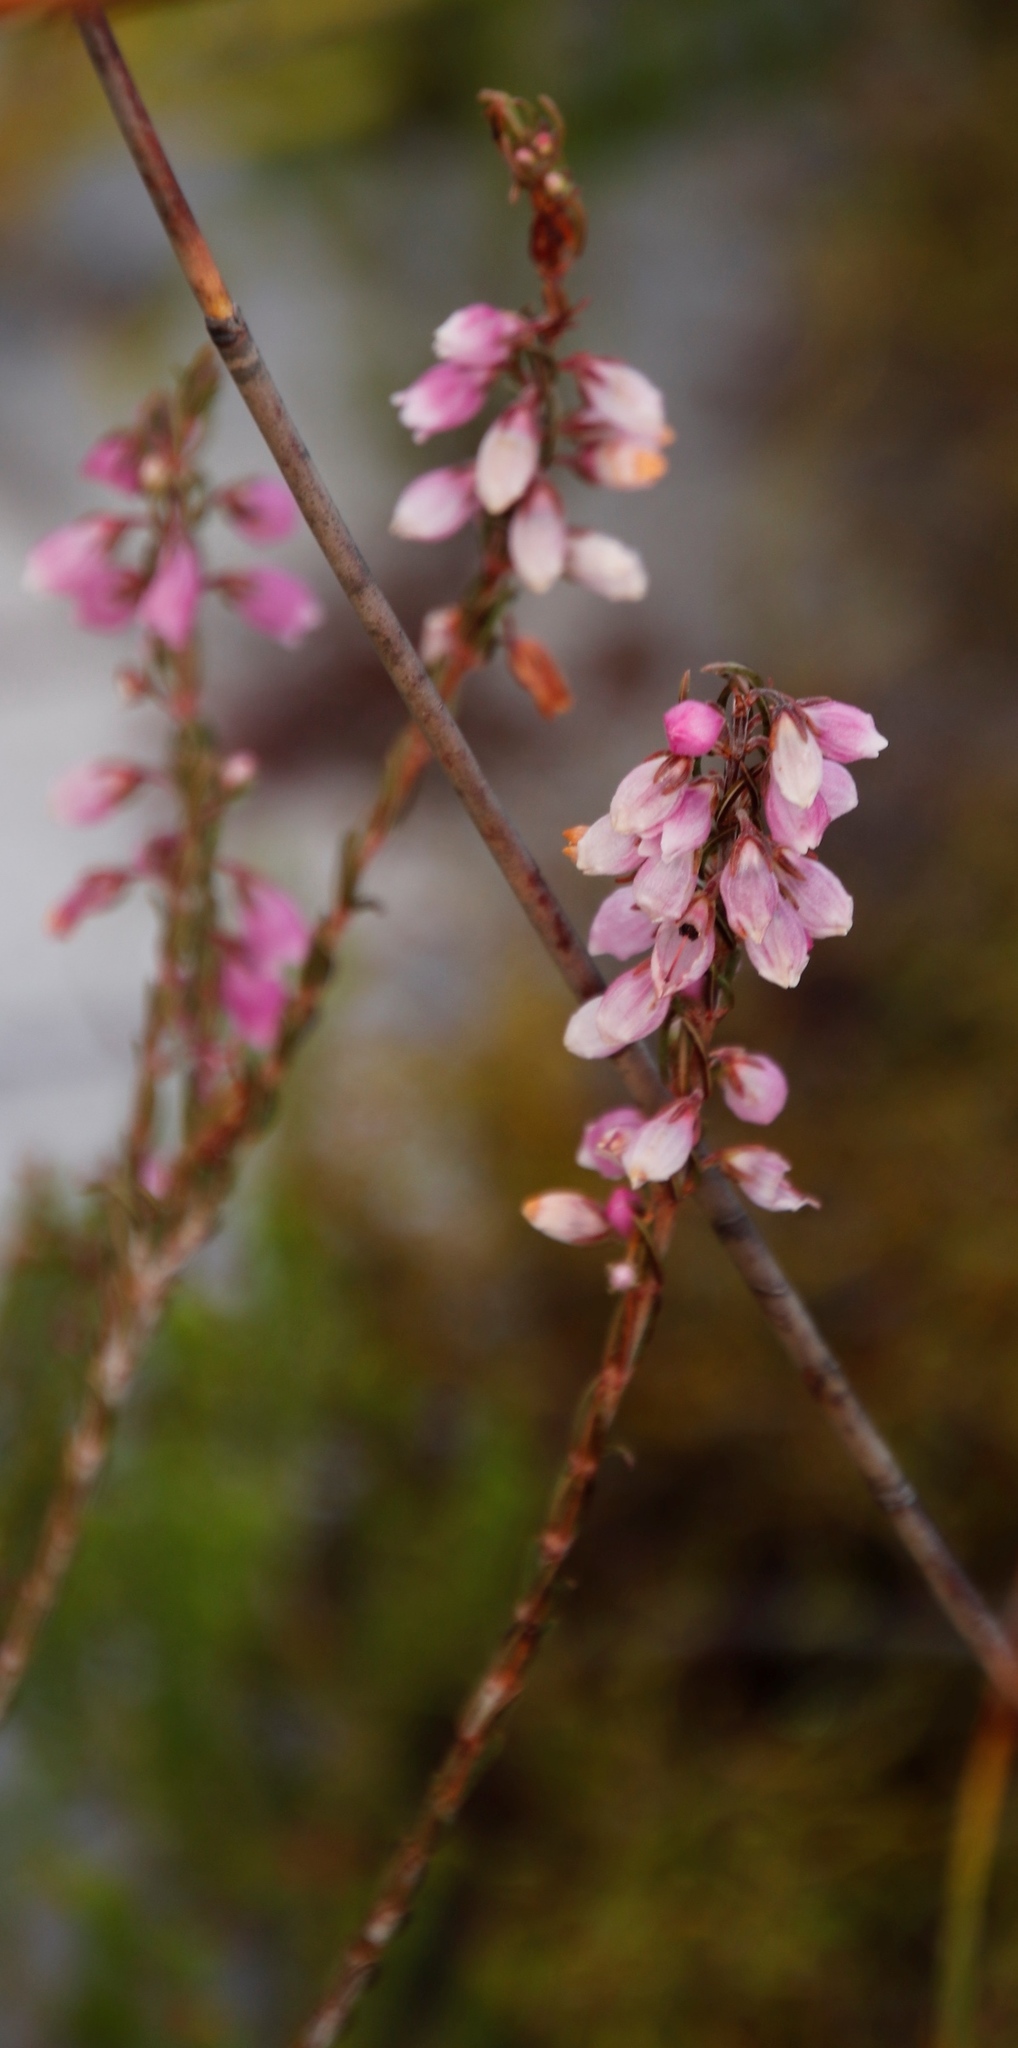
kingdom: Plantae
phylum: Tracheophyta
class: Magnoliopsida
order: Ericales
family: Ericaceae
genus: Erica
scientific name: Erica viscaria
